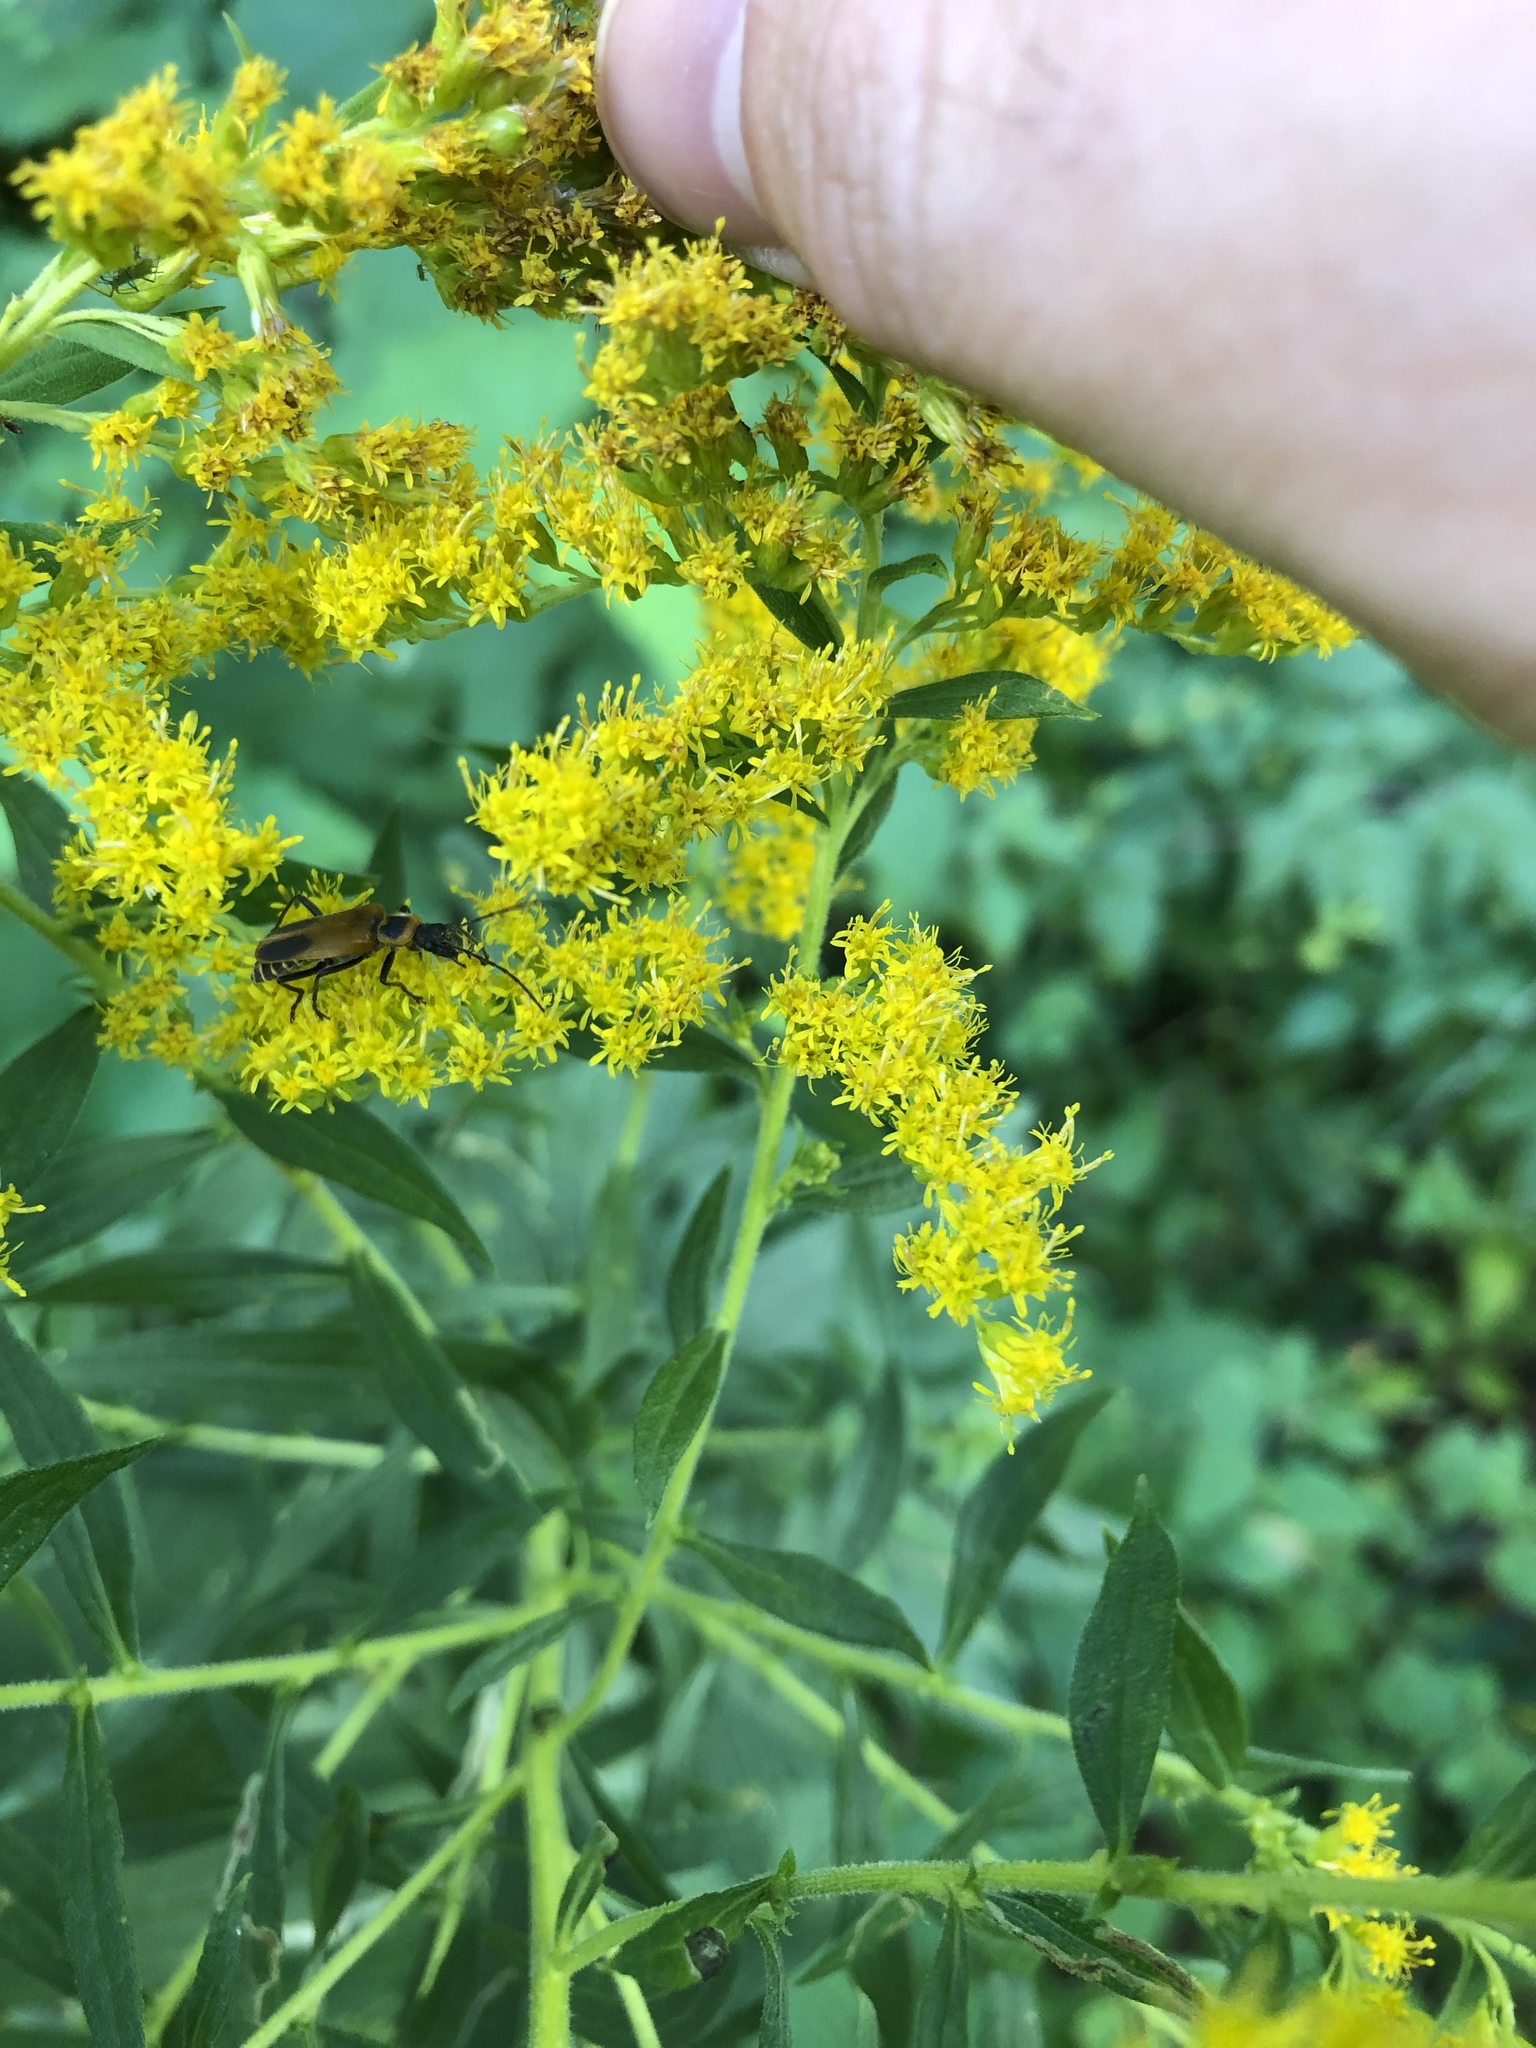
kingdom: Animalia
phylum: Arthropoda
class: Insecta
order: Coleoptera
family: Cantharidae
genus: Chauliognathus
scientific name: Chauliognathus pensylvanicus
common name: Goldenrod soldier beetle
